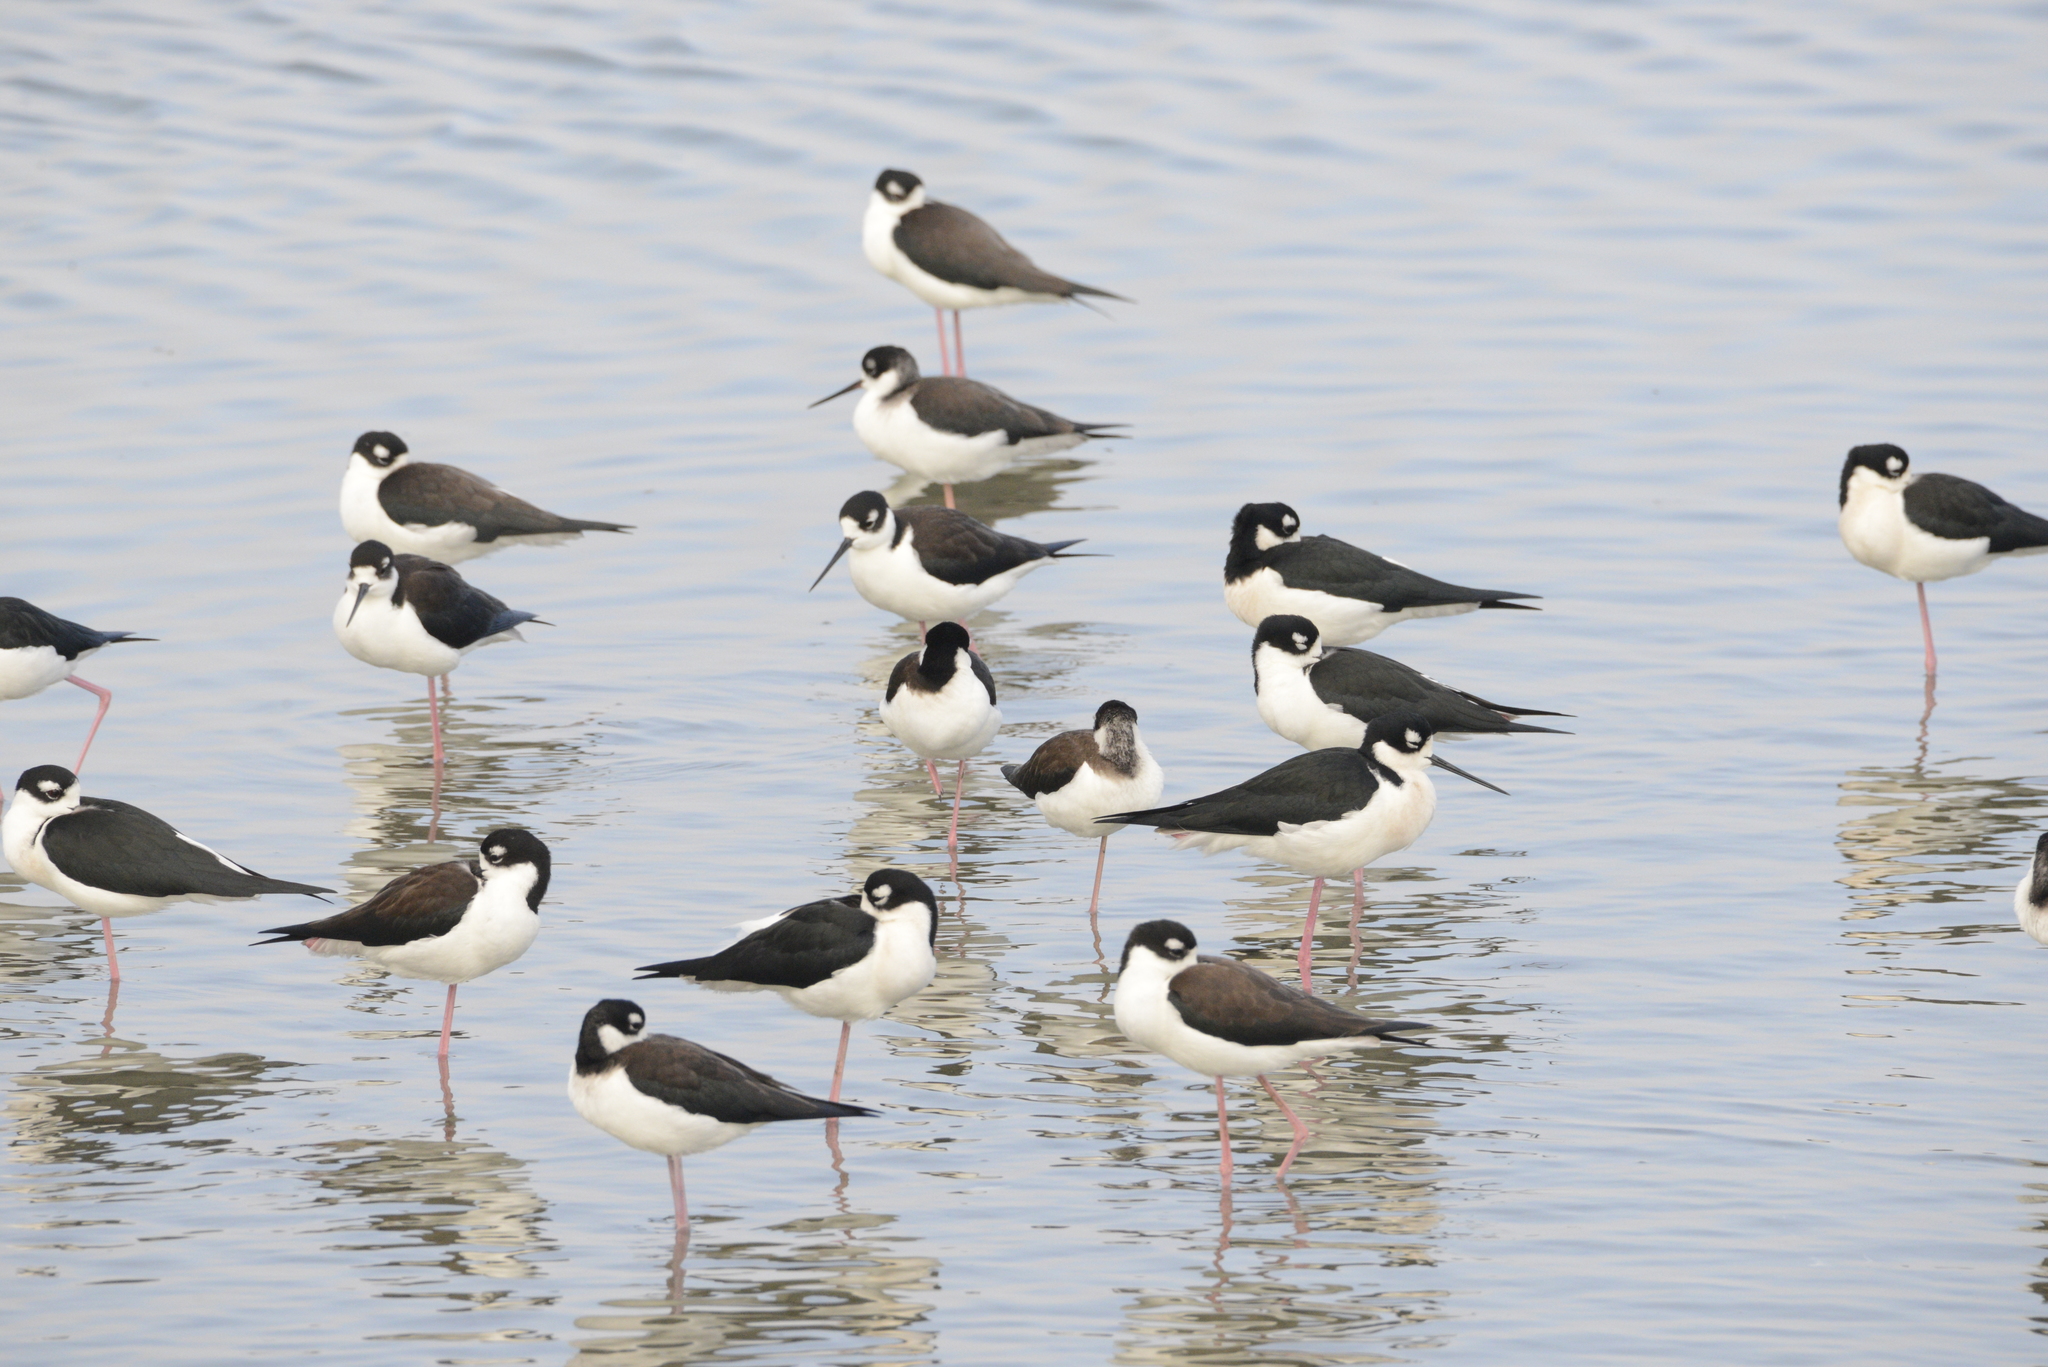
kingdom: Animalia
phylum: Chordata
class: Aves
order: Charadriiformes
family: Recurvirostridae
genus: Himantopus
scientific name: Himantopus mexicanus
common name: Black-necked stilt
